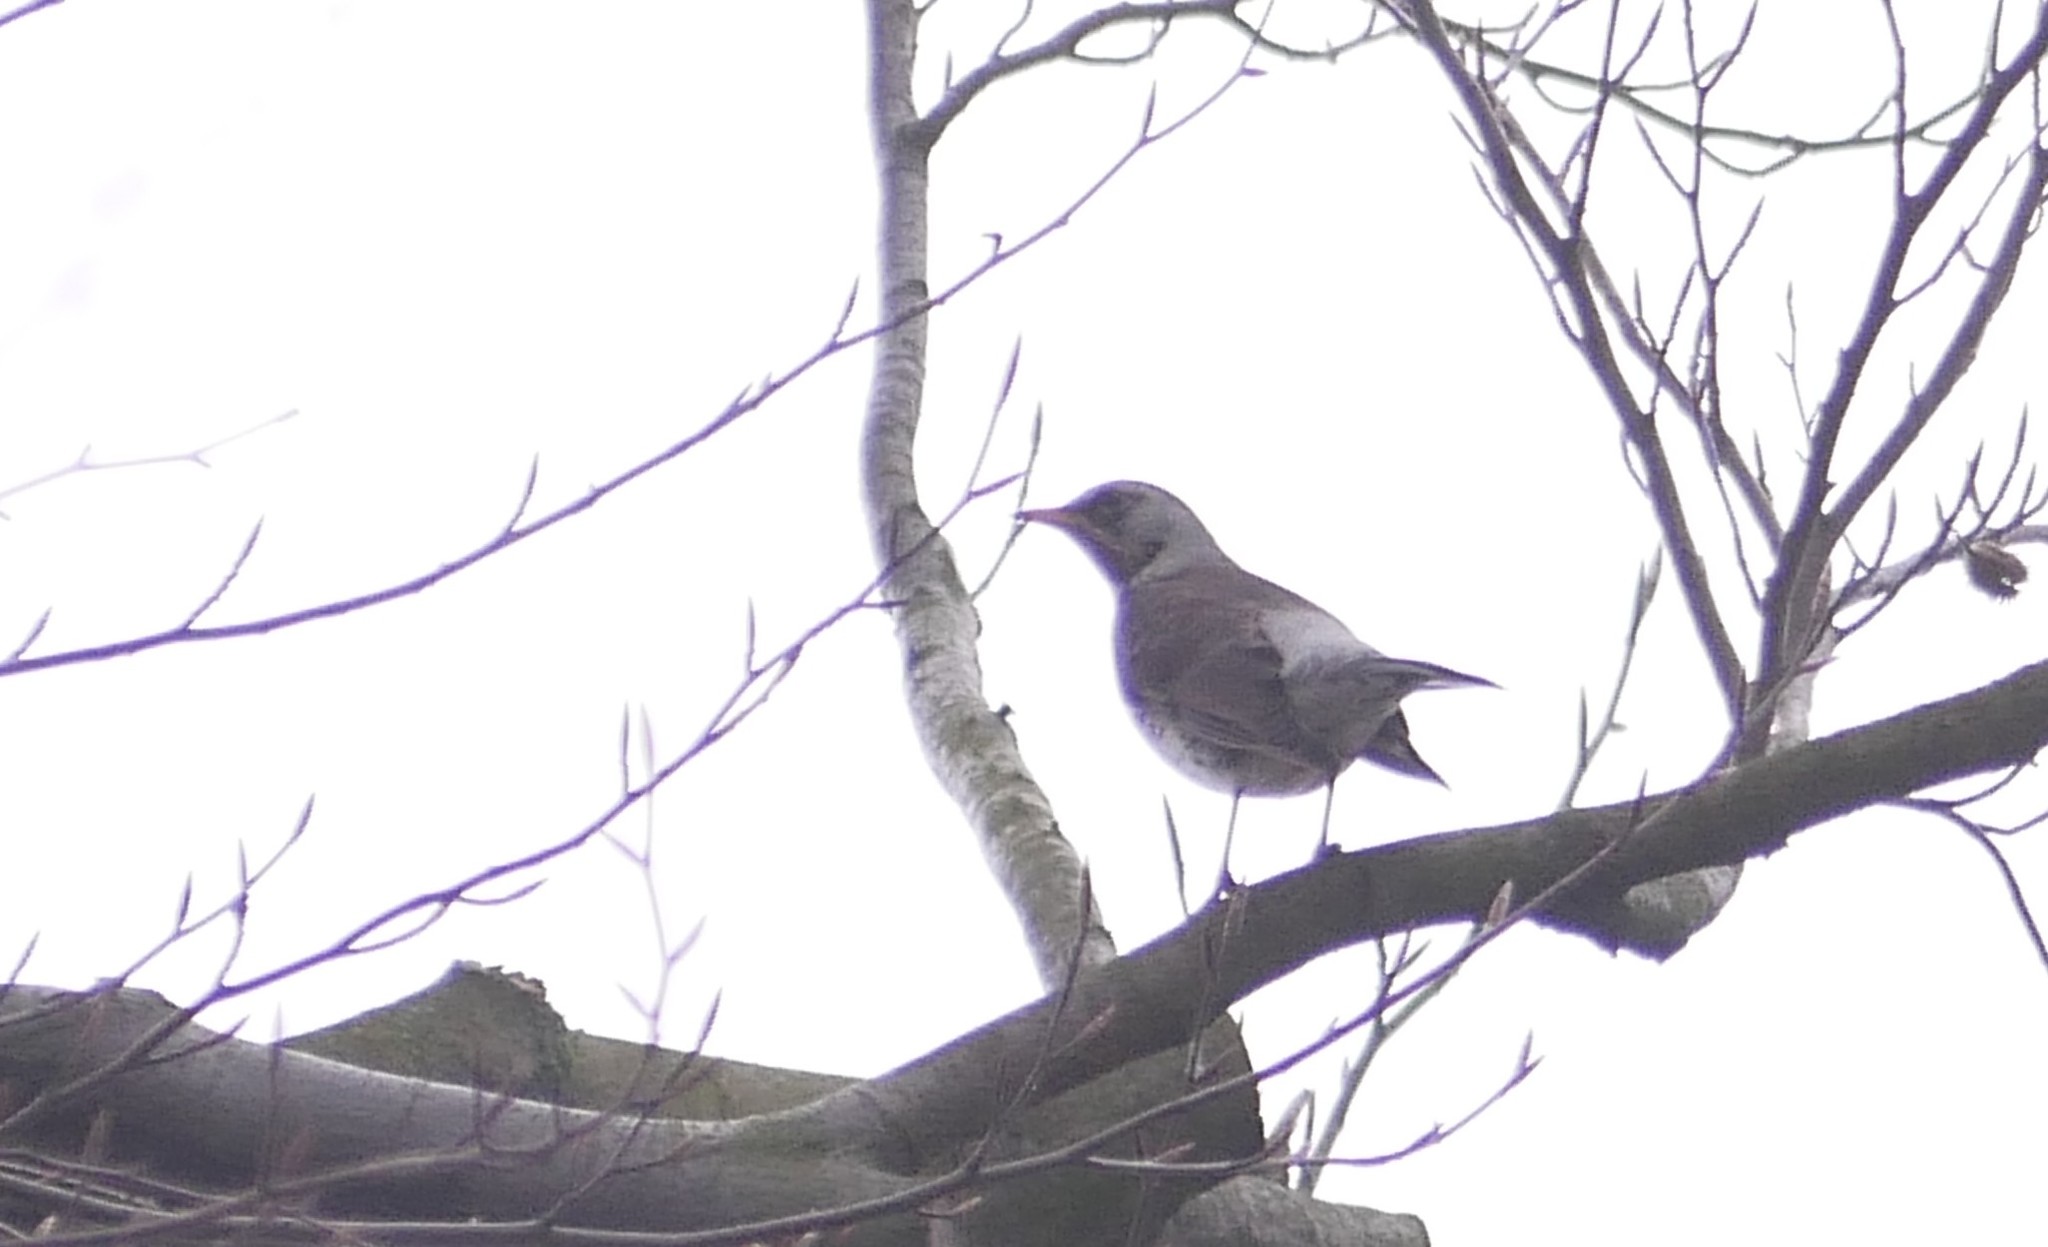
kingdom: Animalia
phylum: Chordata
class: Aves
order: Passeriformes
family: Turdidae
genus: Turdus
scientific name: Turdus pilaris
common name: Fieldfare
